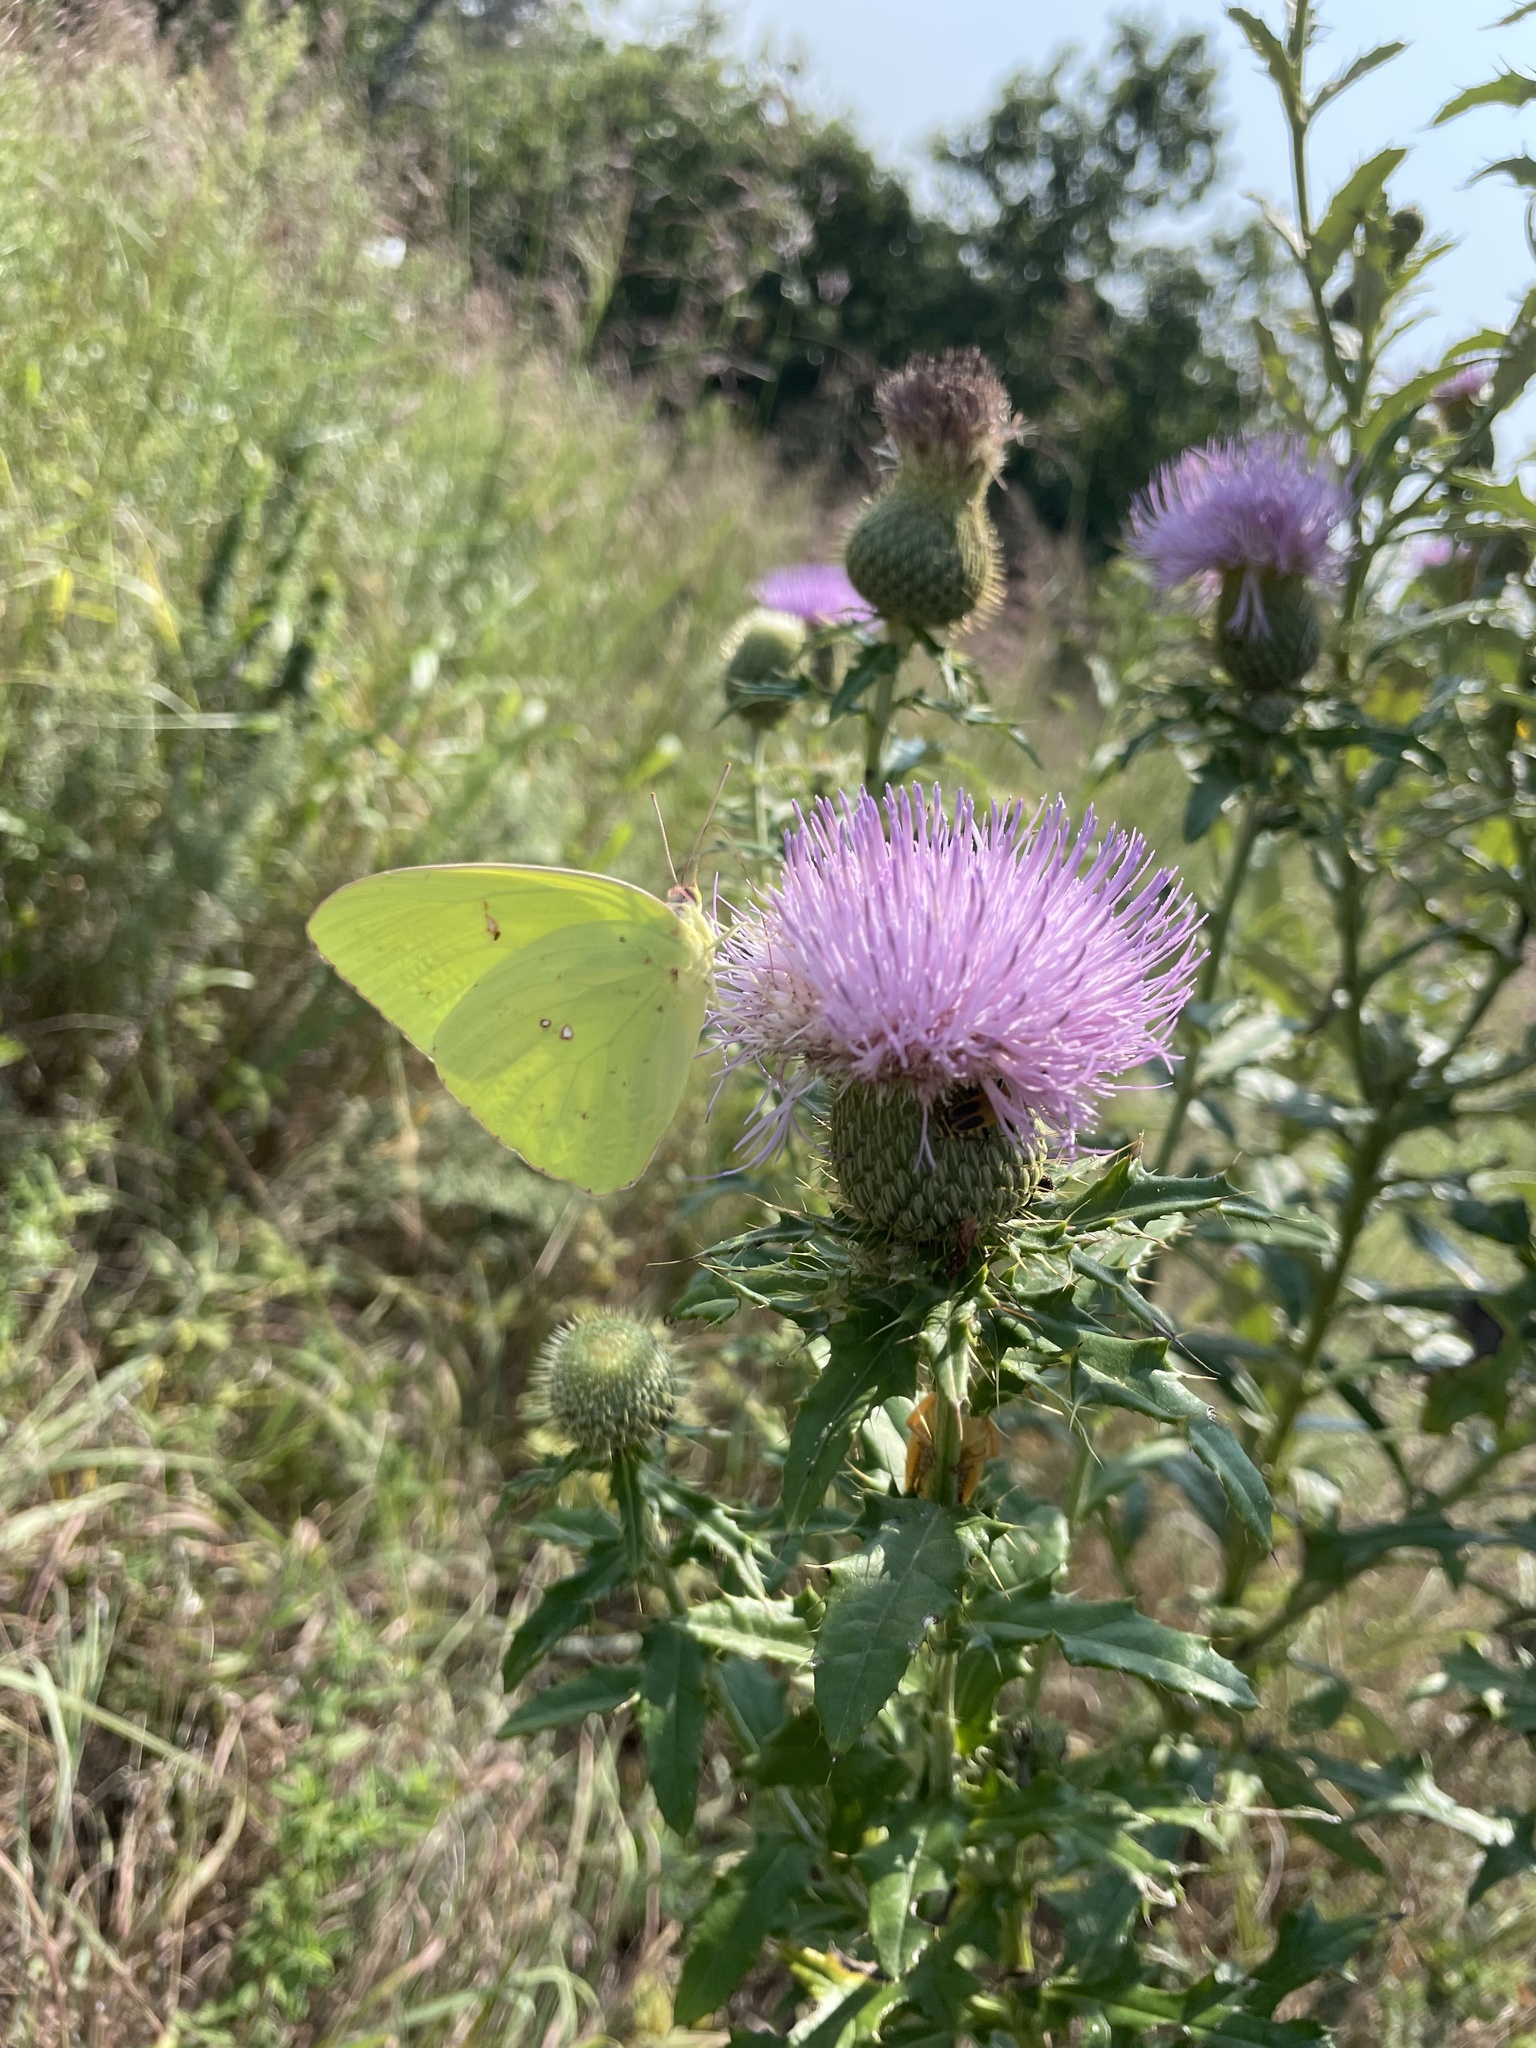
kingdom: Animalia
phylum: Arthropoda
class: Insecta
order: Lepidoptera
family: Pieridae
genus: Phoebis
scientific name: Phoebis sennae
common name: Cloudless sulphur
